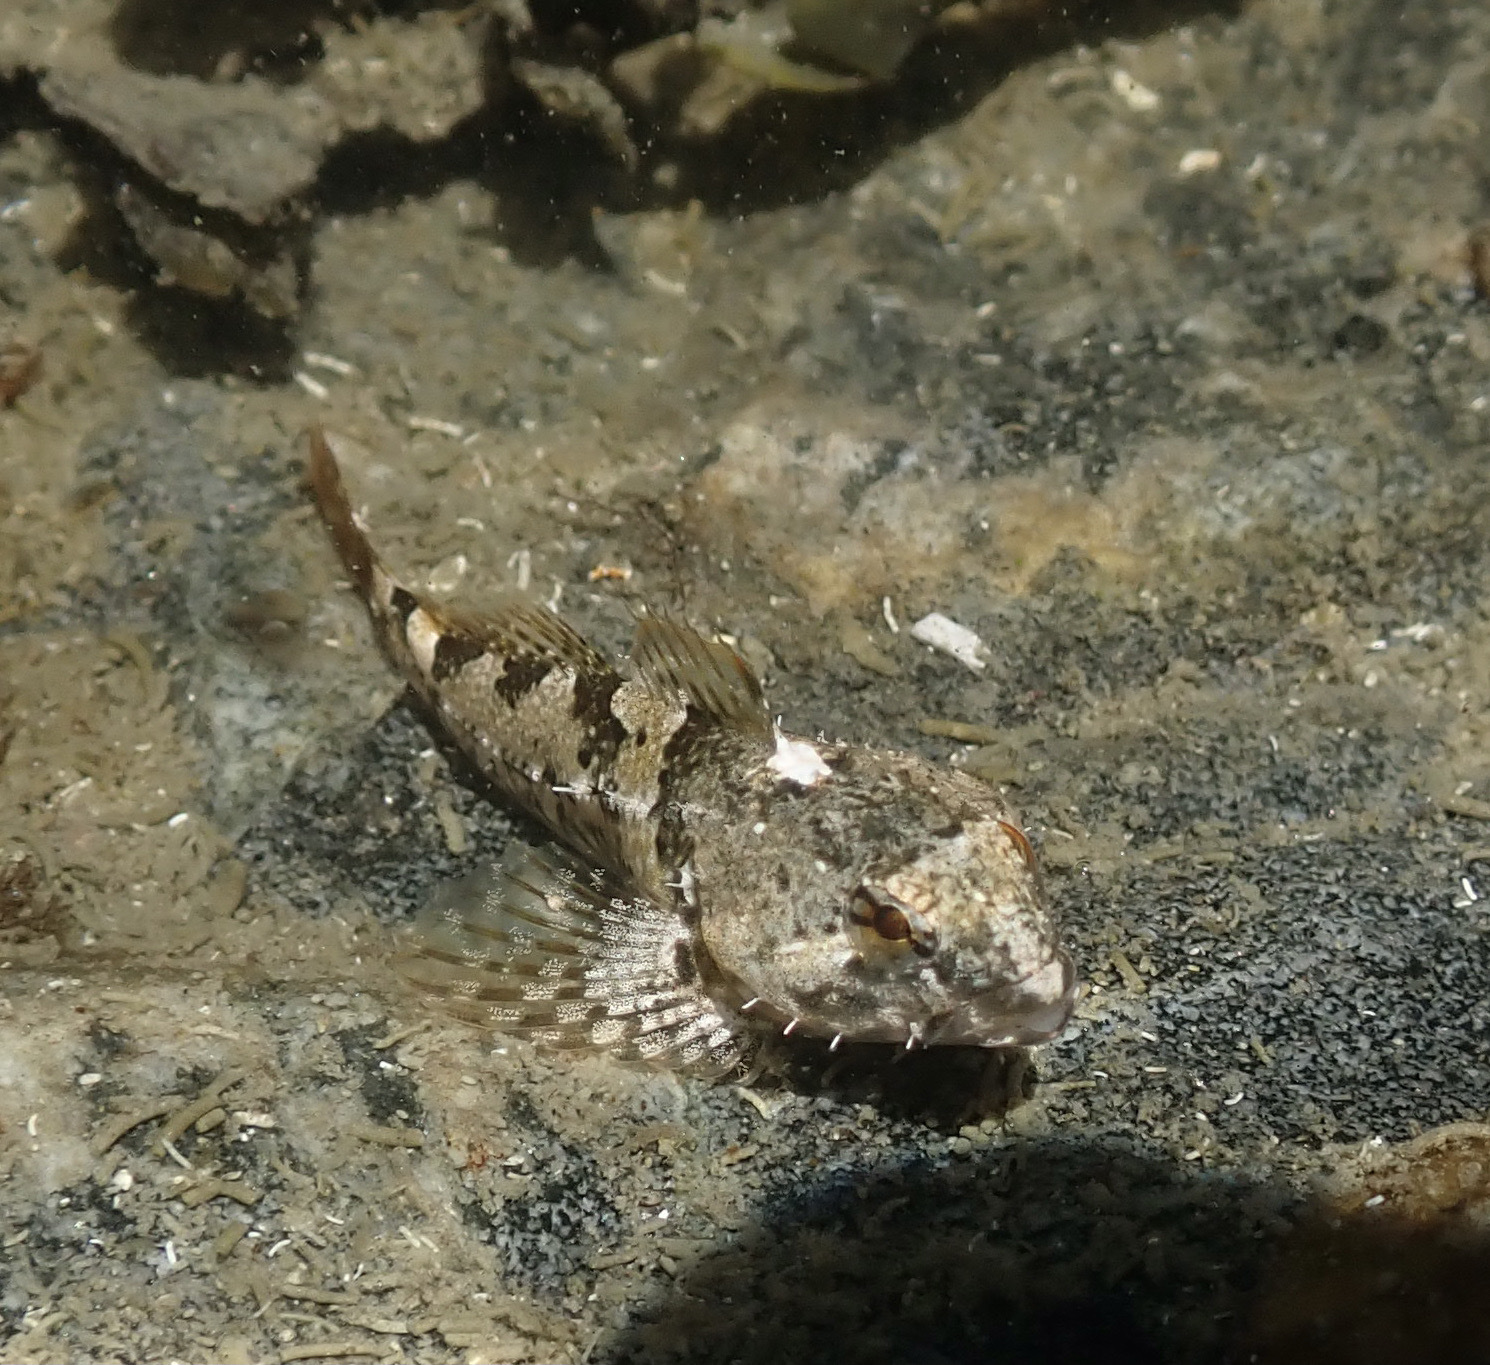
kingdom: Animalia
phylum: Chordata
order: Scorpaeniformes
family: Cottidae
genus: Oligocottus
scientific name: Oligocottus maculosus
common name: Tidepool sculpin
